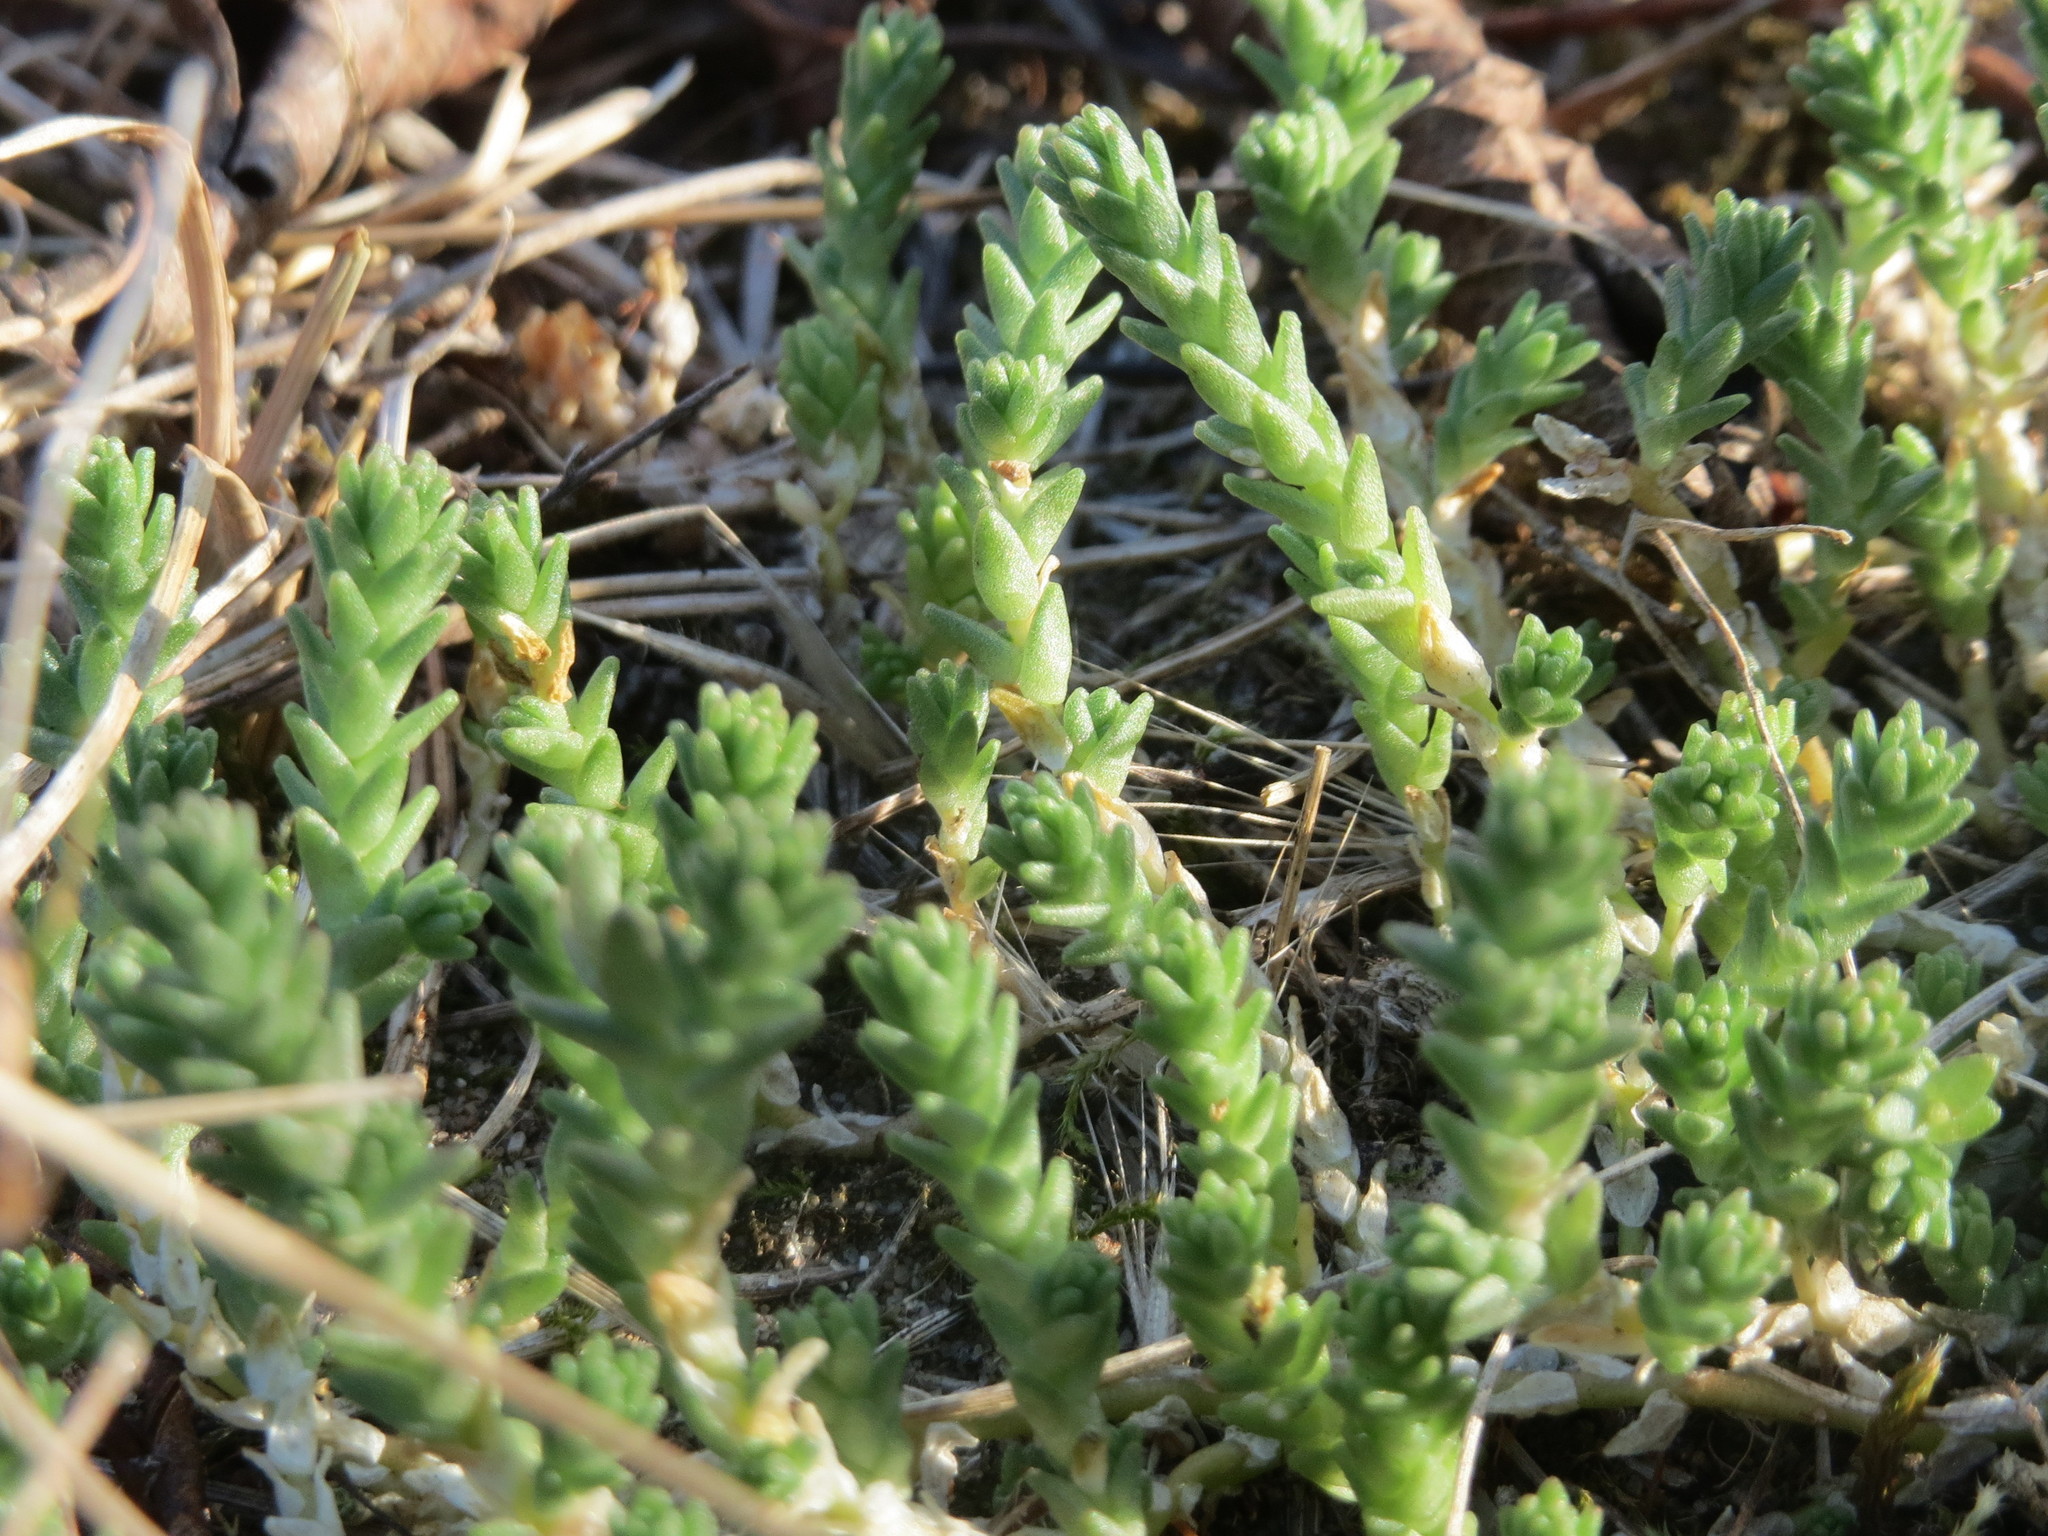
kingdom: Plantae
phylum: Tracheophyta
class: Magnoliopsida
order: Saxifragales
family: Crassulaceae
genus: Sedum
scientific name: Sedum acre
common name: Biting stonecrop
